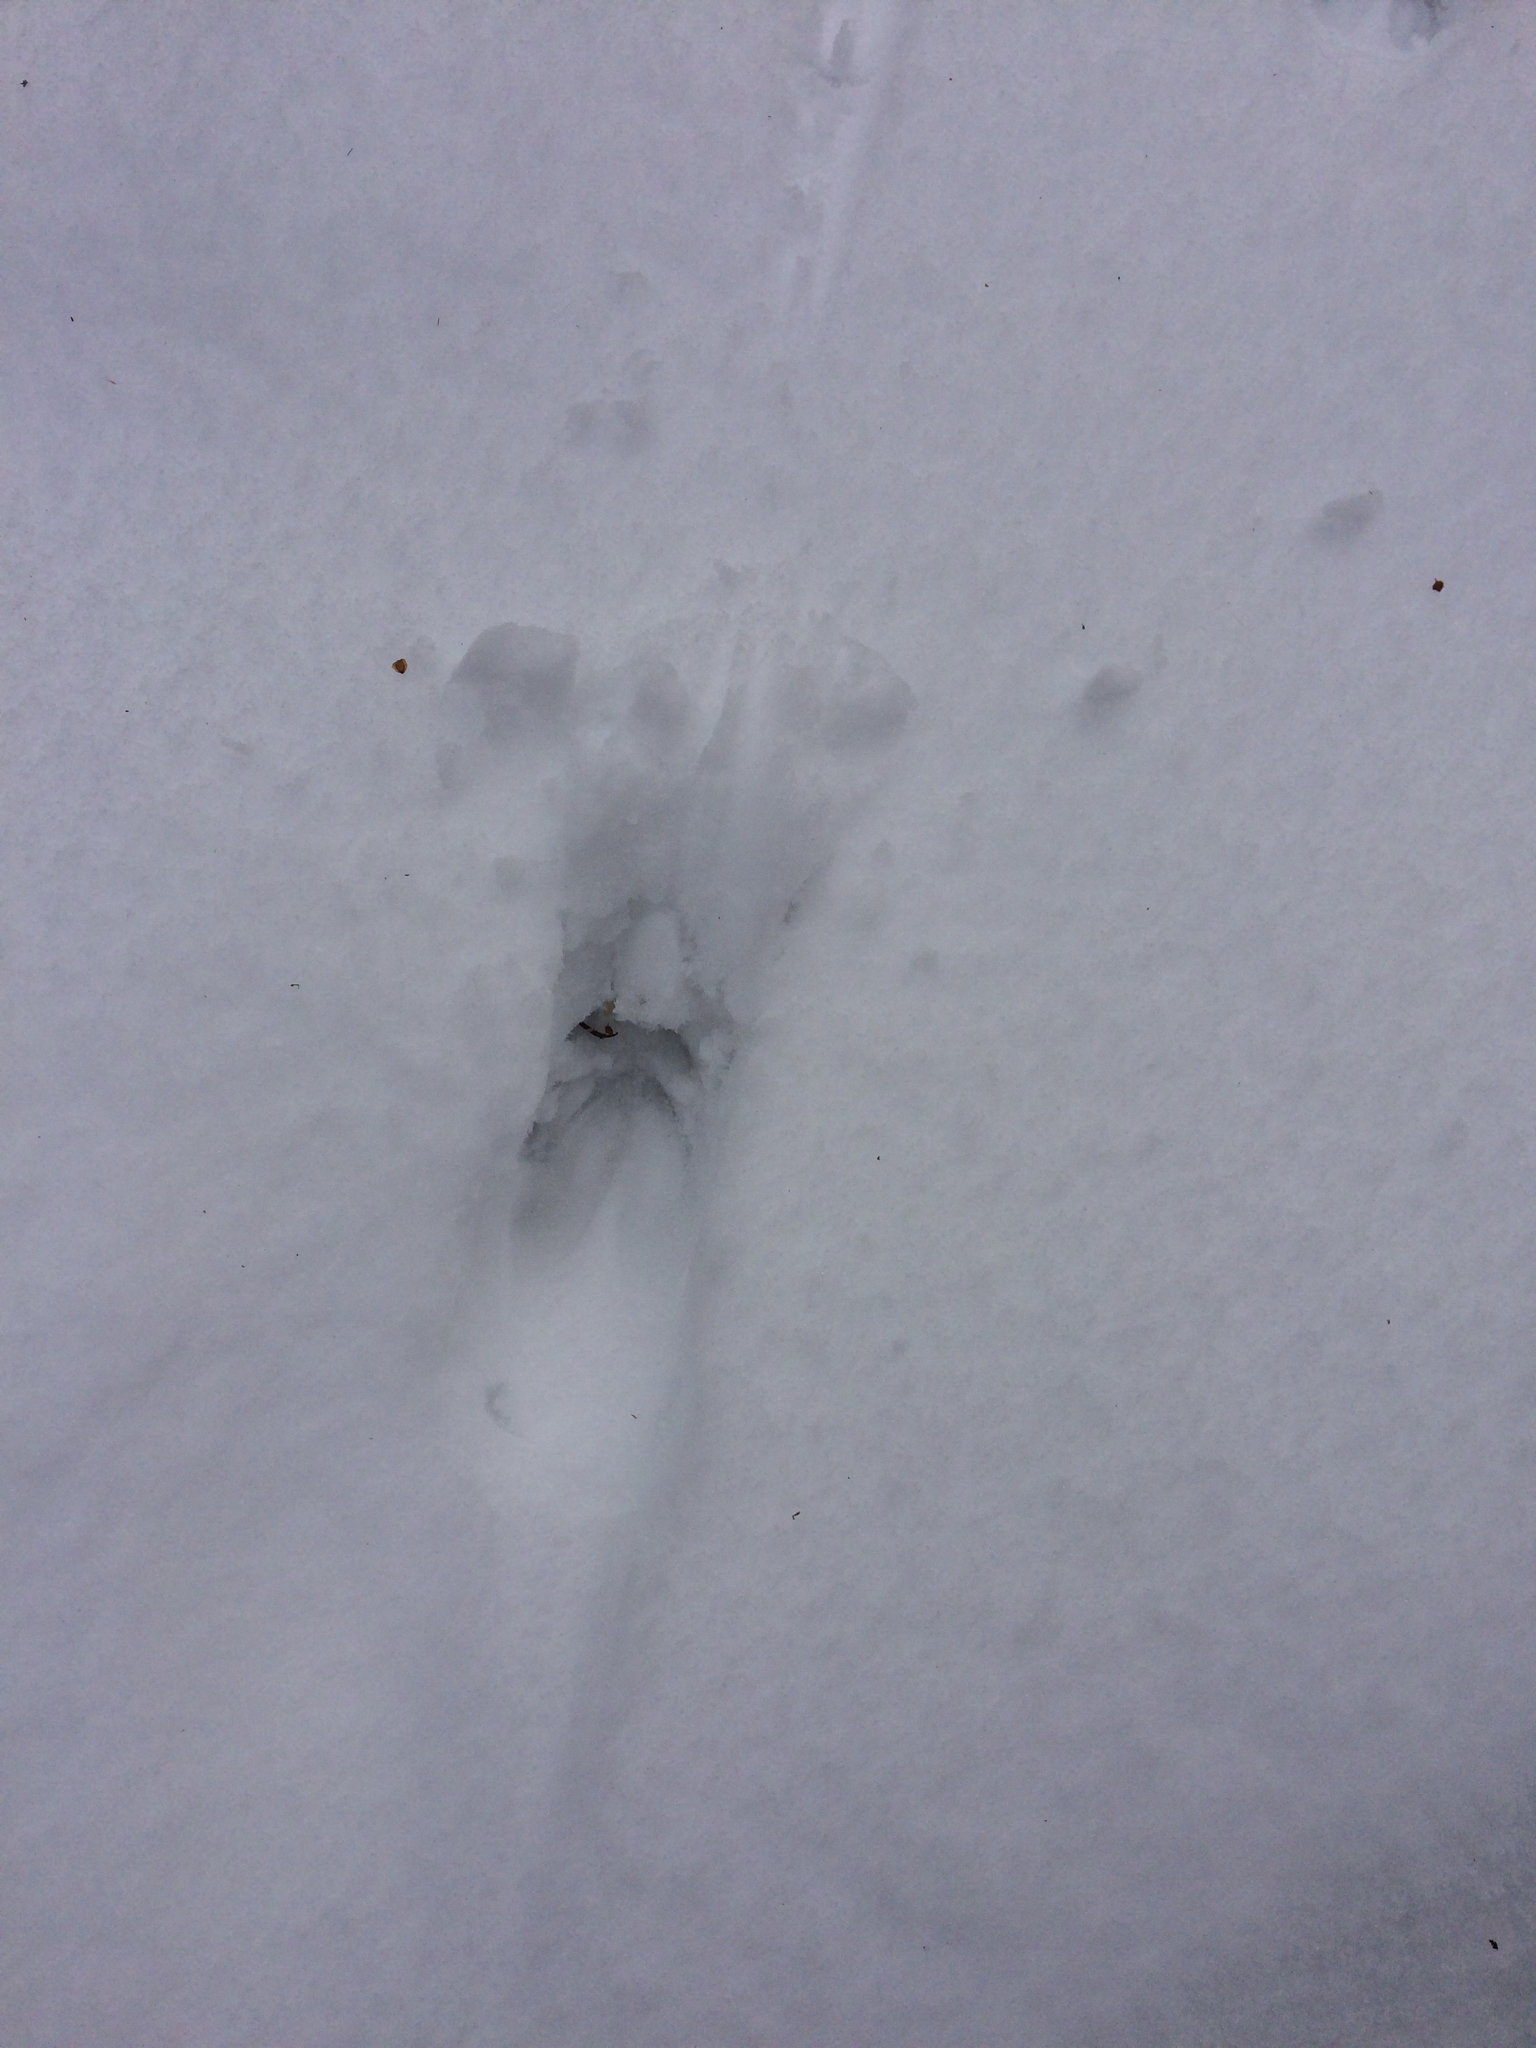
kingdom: Animalia
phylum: Chordata
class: Mammalia
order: Artiodactyla
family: Cervidae
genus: Odocoileus
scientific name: Odocoileus virginianus
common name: White-tailed deer
